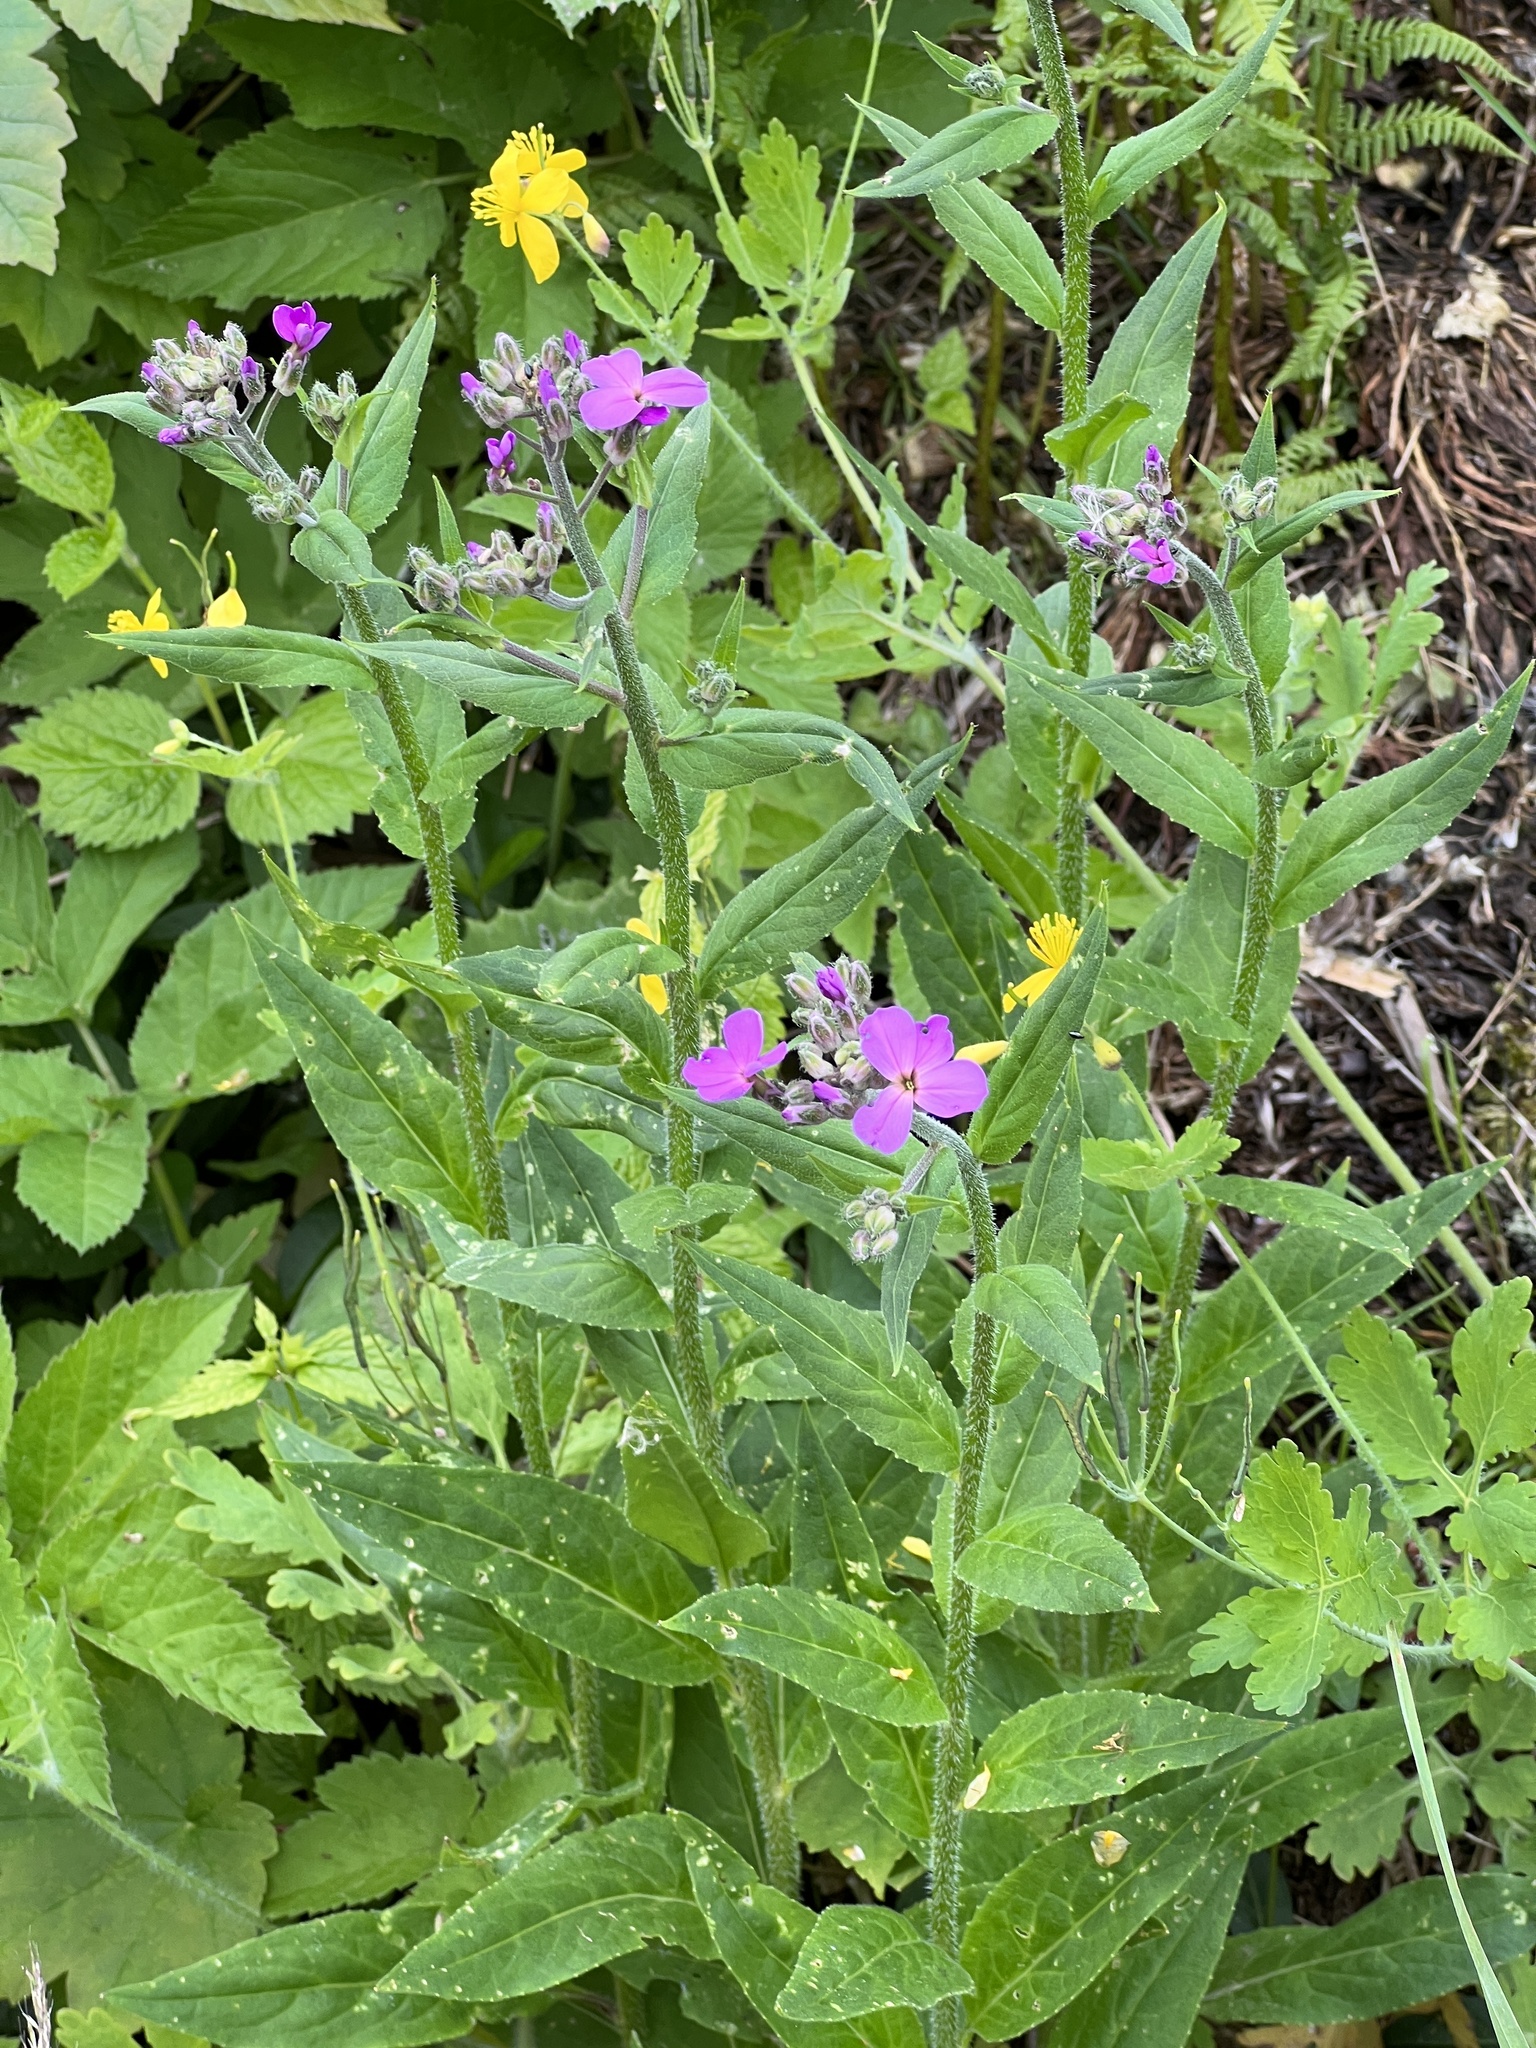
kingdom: Plantae
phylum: Tracheophyta
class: Magnoliopsida
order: Brassicales
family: Brassicaceae
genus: Hesperis
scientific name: Hesperis matronalis
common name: Dame's-violet
